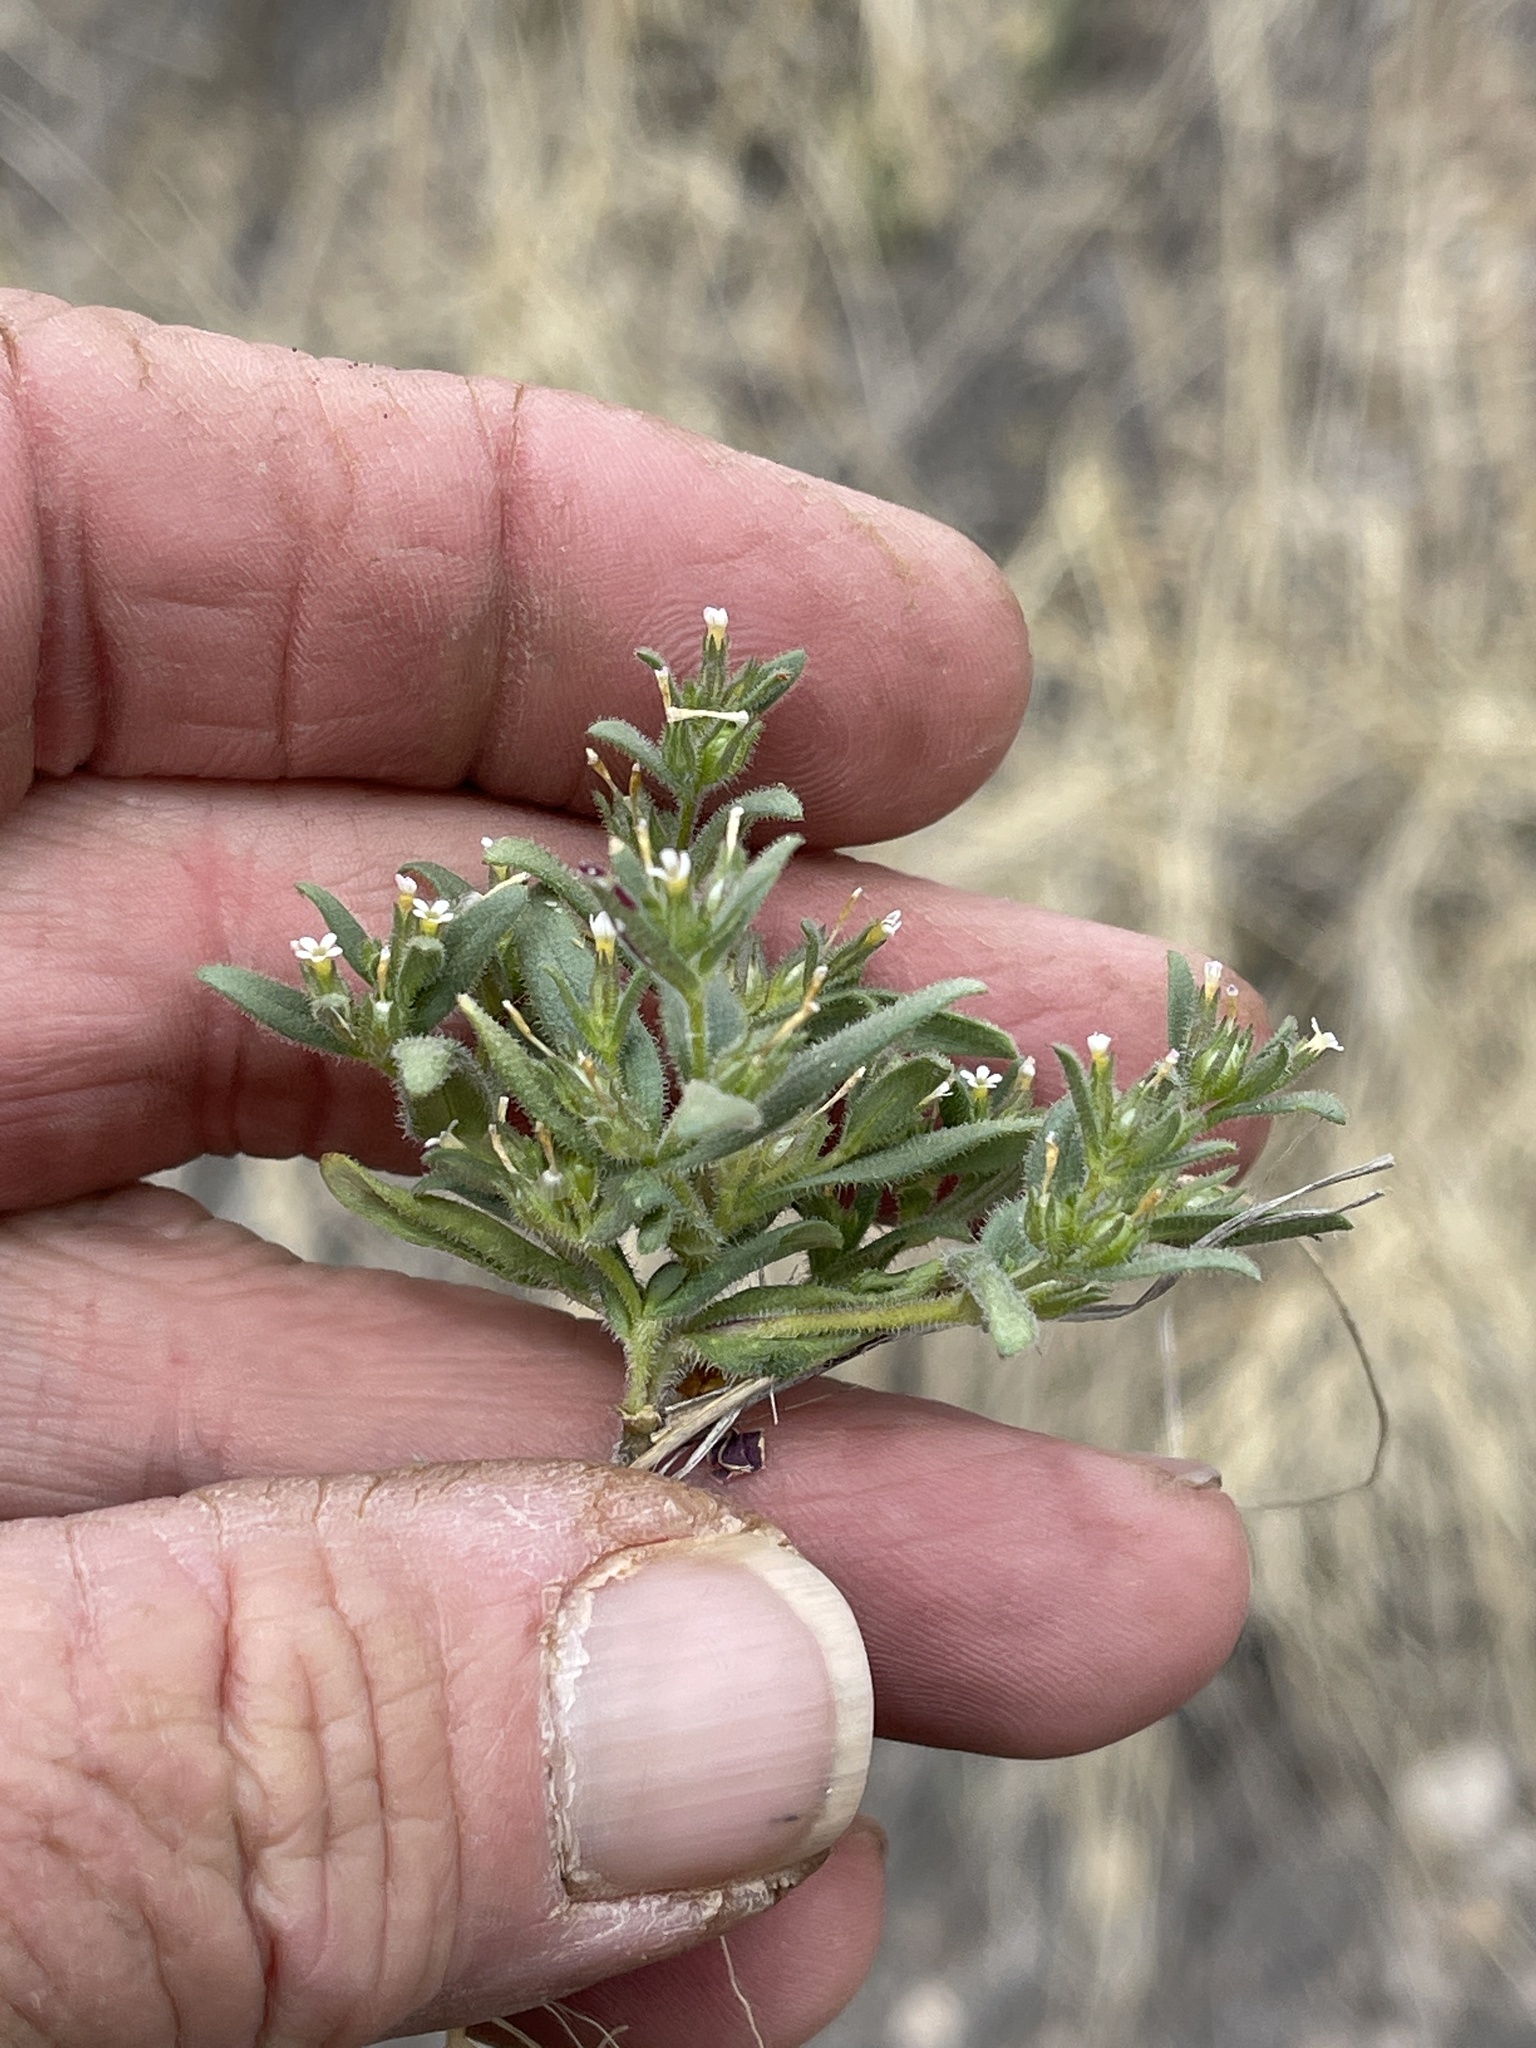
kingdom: Plantae
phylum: Tracheophyta
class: Magnoliopsida
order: Boraginales
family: Boraginaceae
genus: Lappula
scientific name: Lappula occidentalis
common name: Western stickseed
